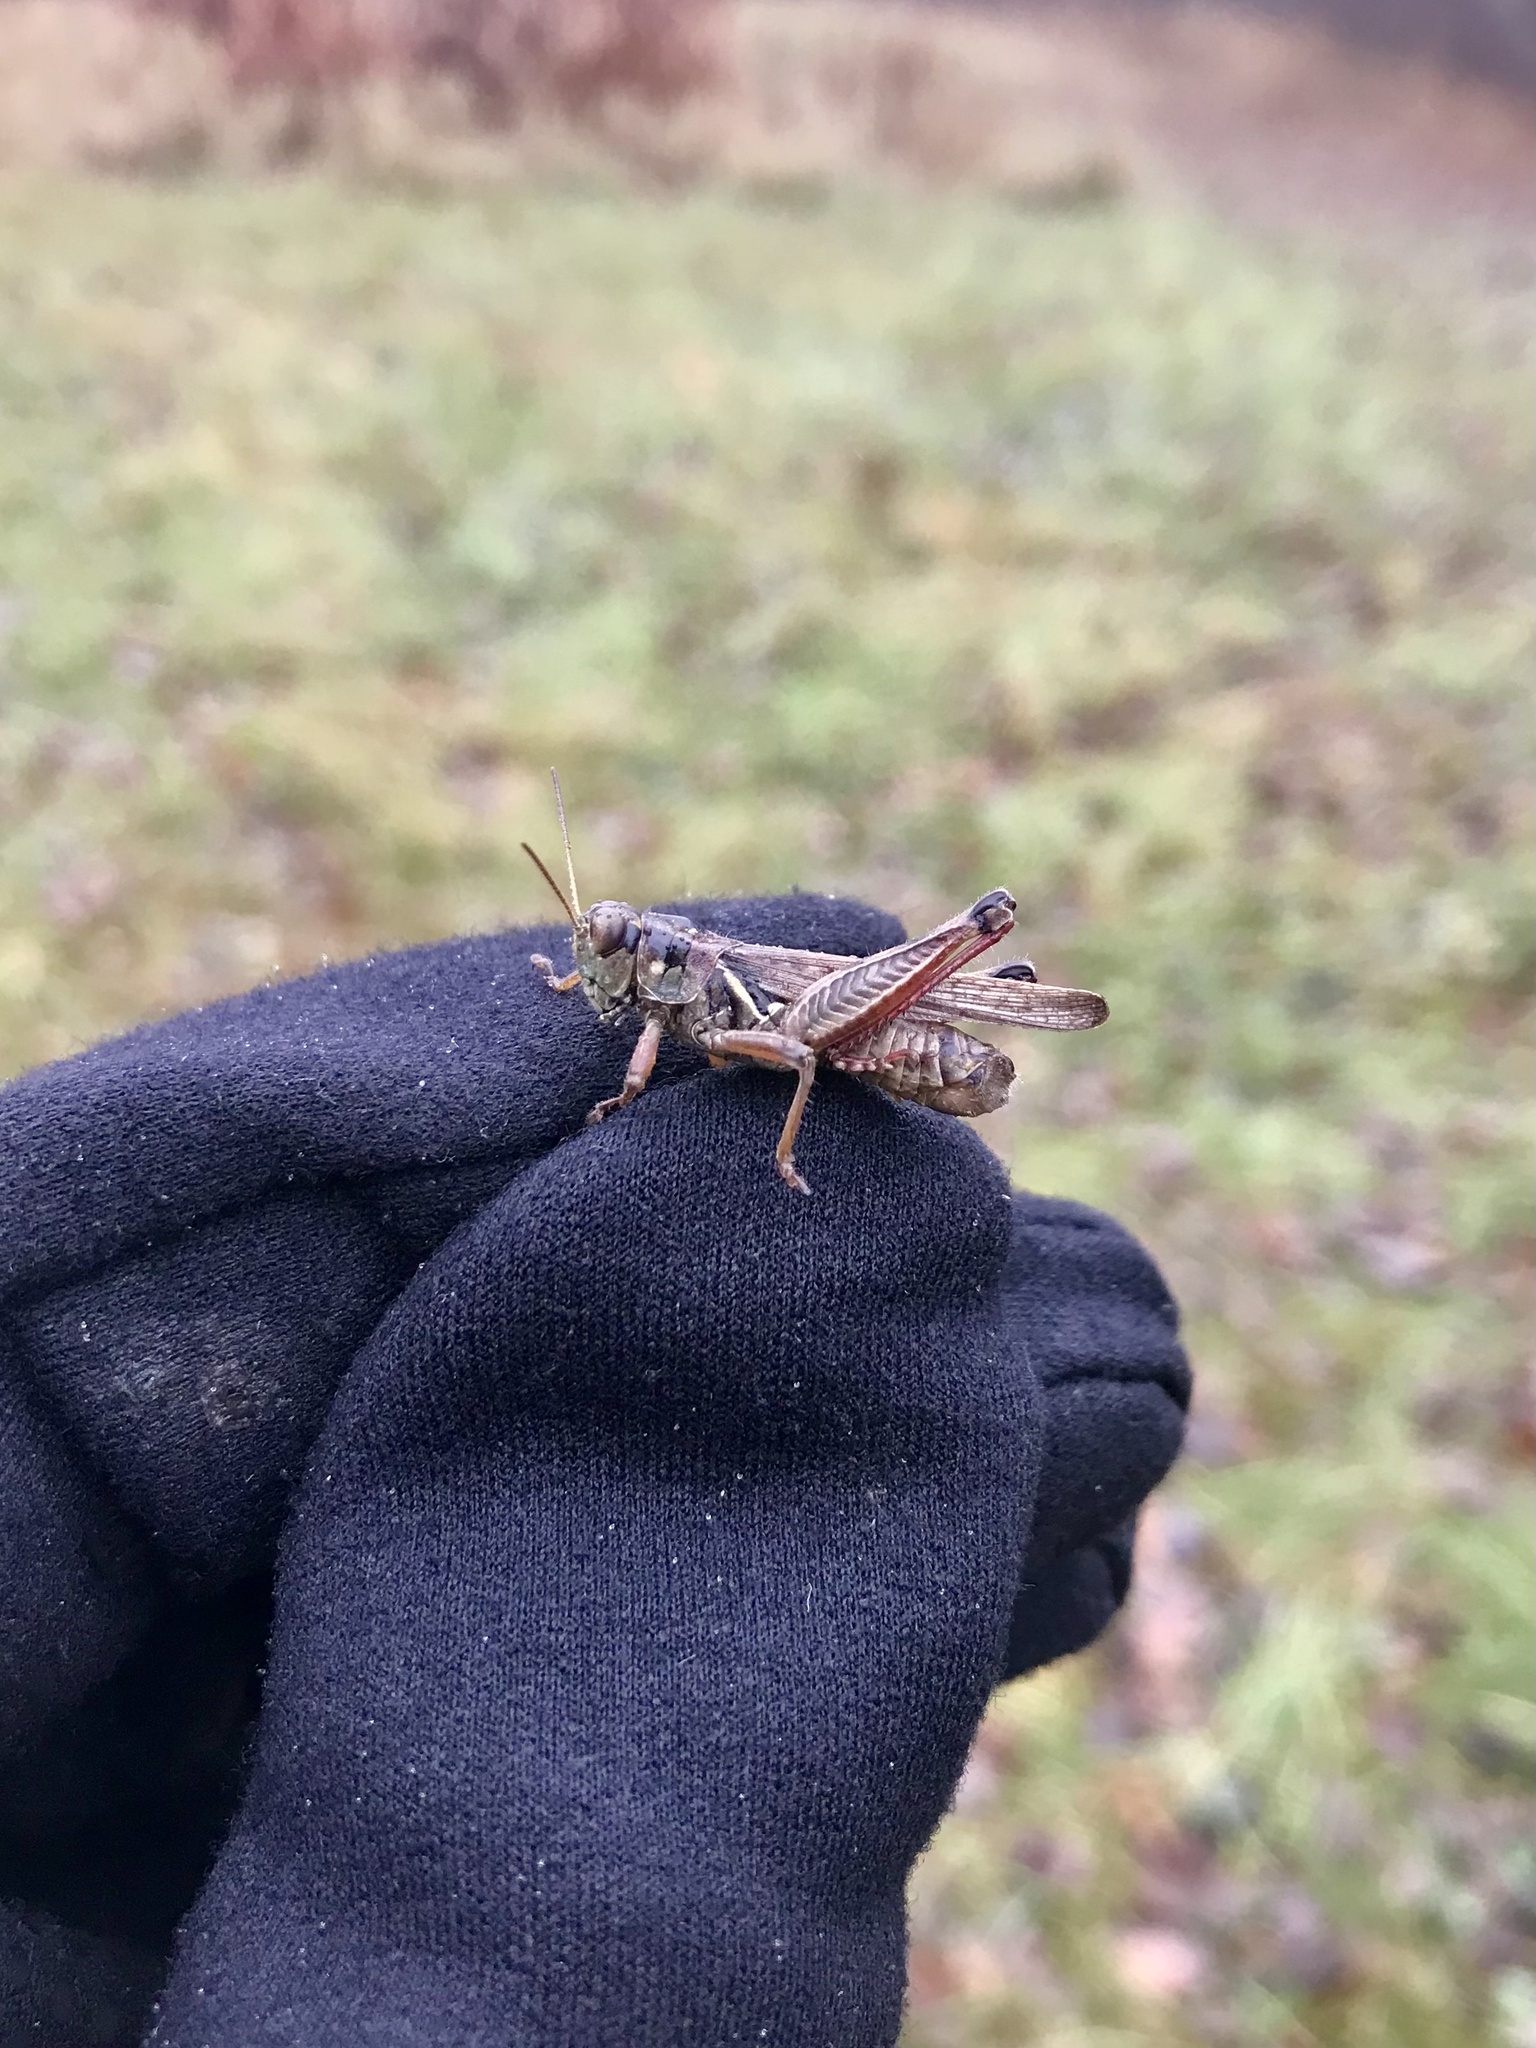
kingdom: Animalia
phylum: Arthropoda
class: Insecta
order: Orthoptera
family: Acrididae
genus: Melanoplus
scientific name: Melanoplus femurrubrum
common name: Red-legged grasshopper
